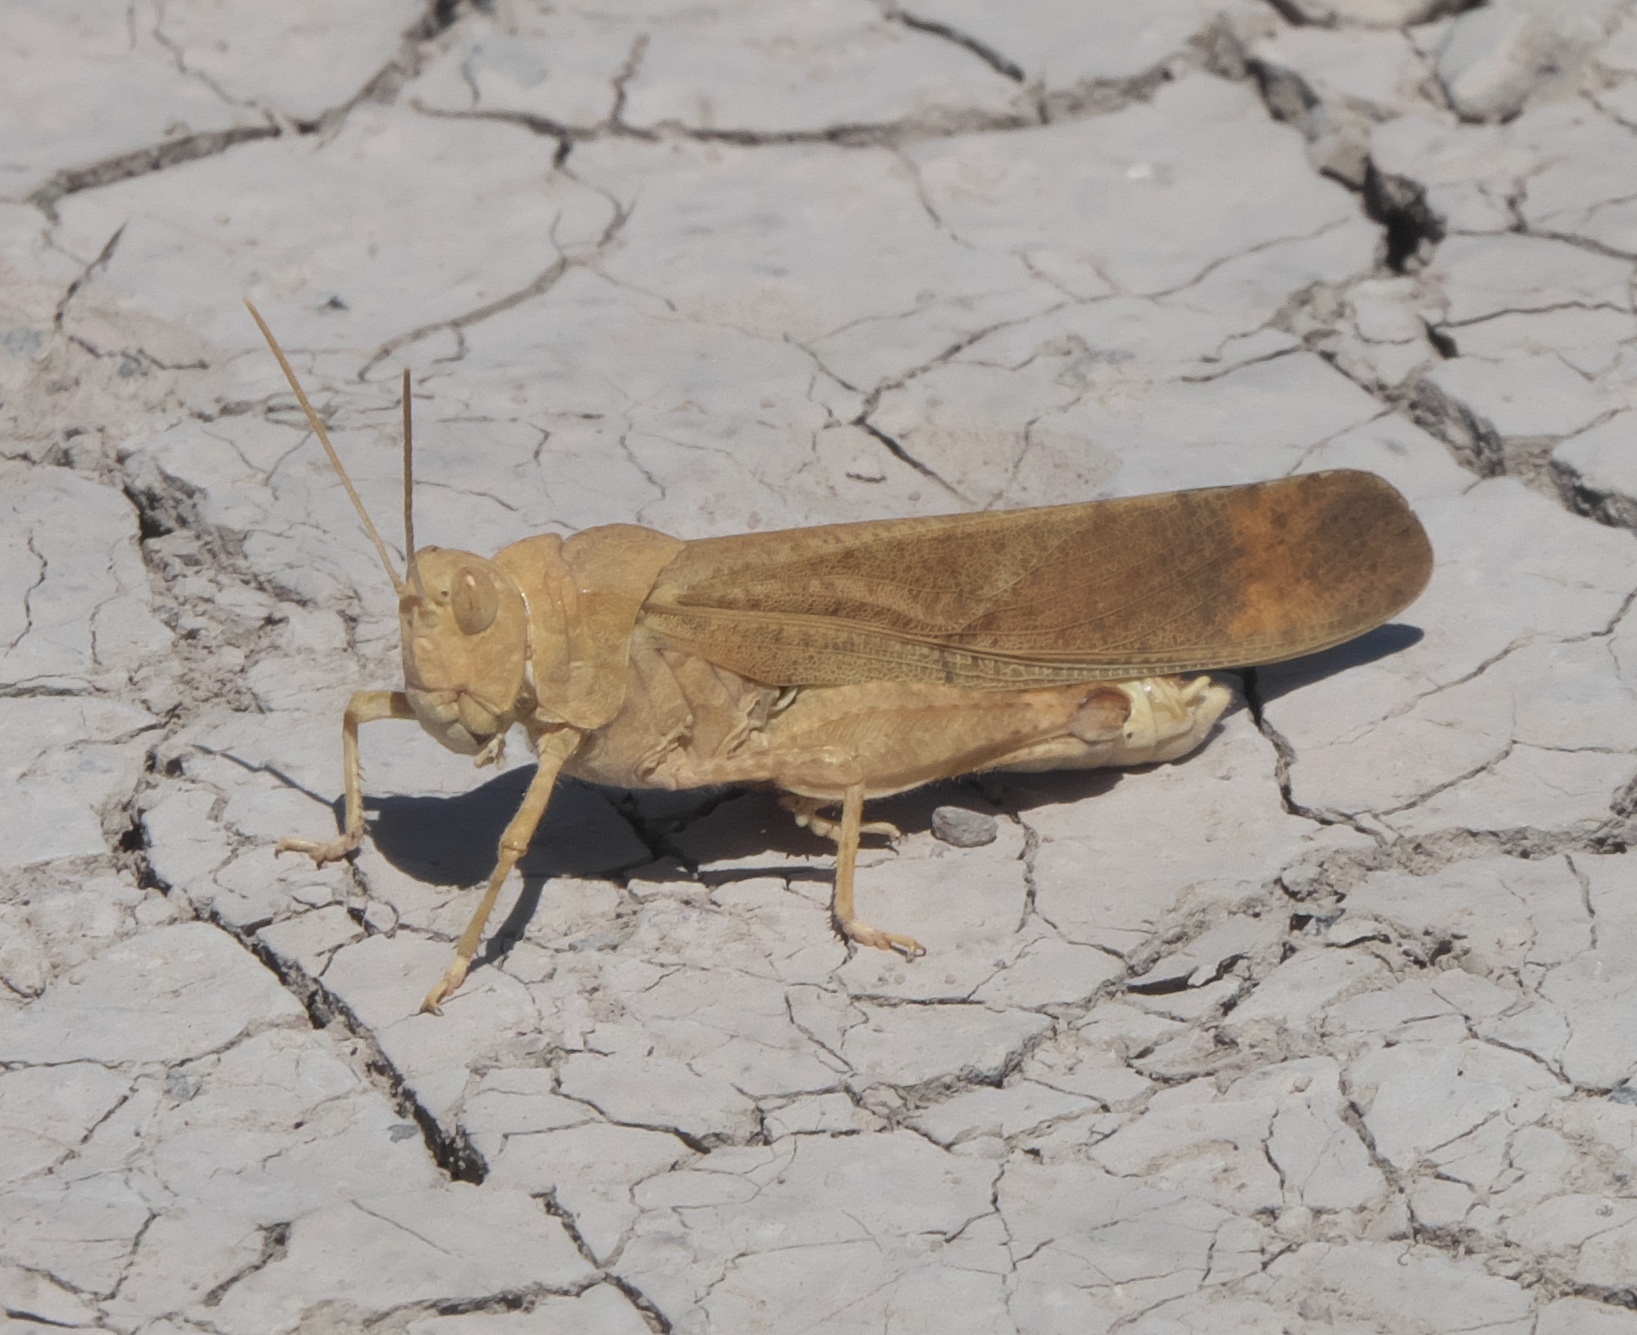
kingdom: Animalia
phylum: Arthropoda
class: Insecta
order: Orthoptera
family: Acrididae
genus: Dissosteira
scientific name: Dissosteira carolina
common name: Carolina grasshopper
